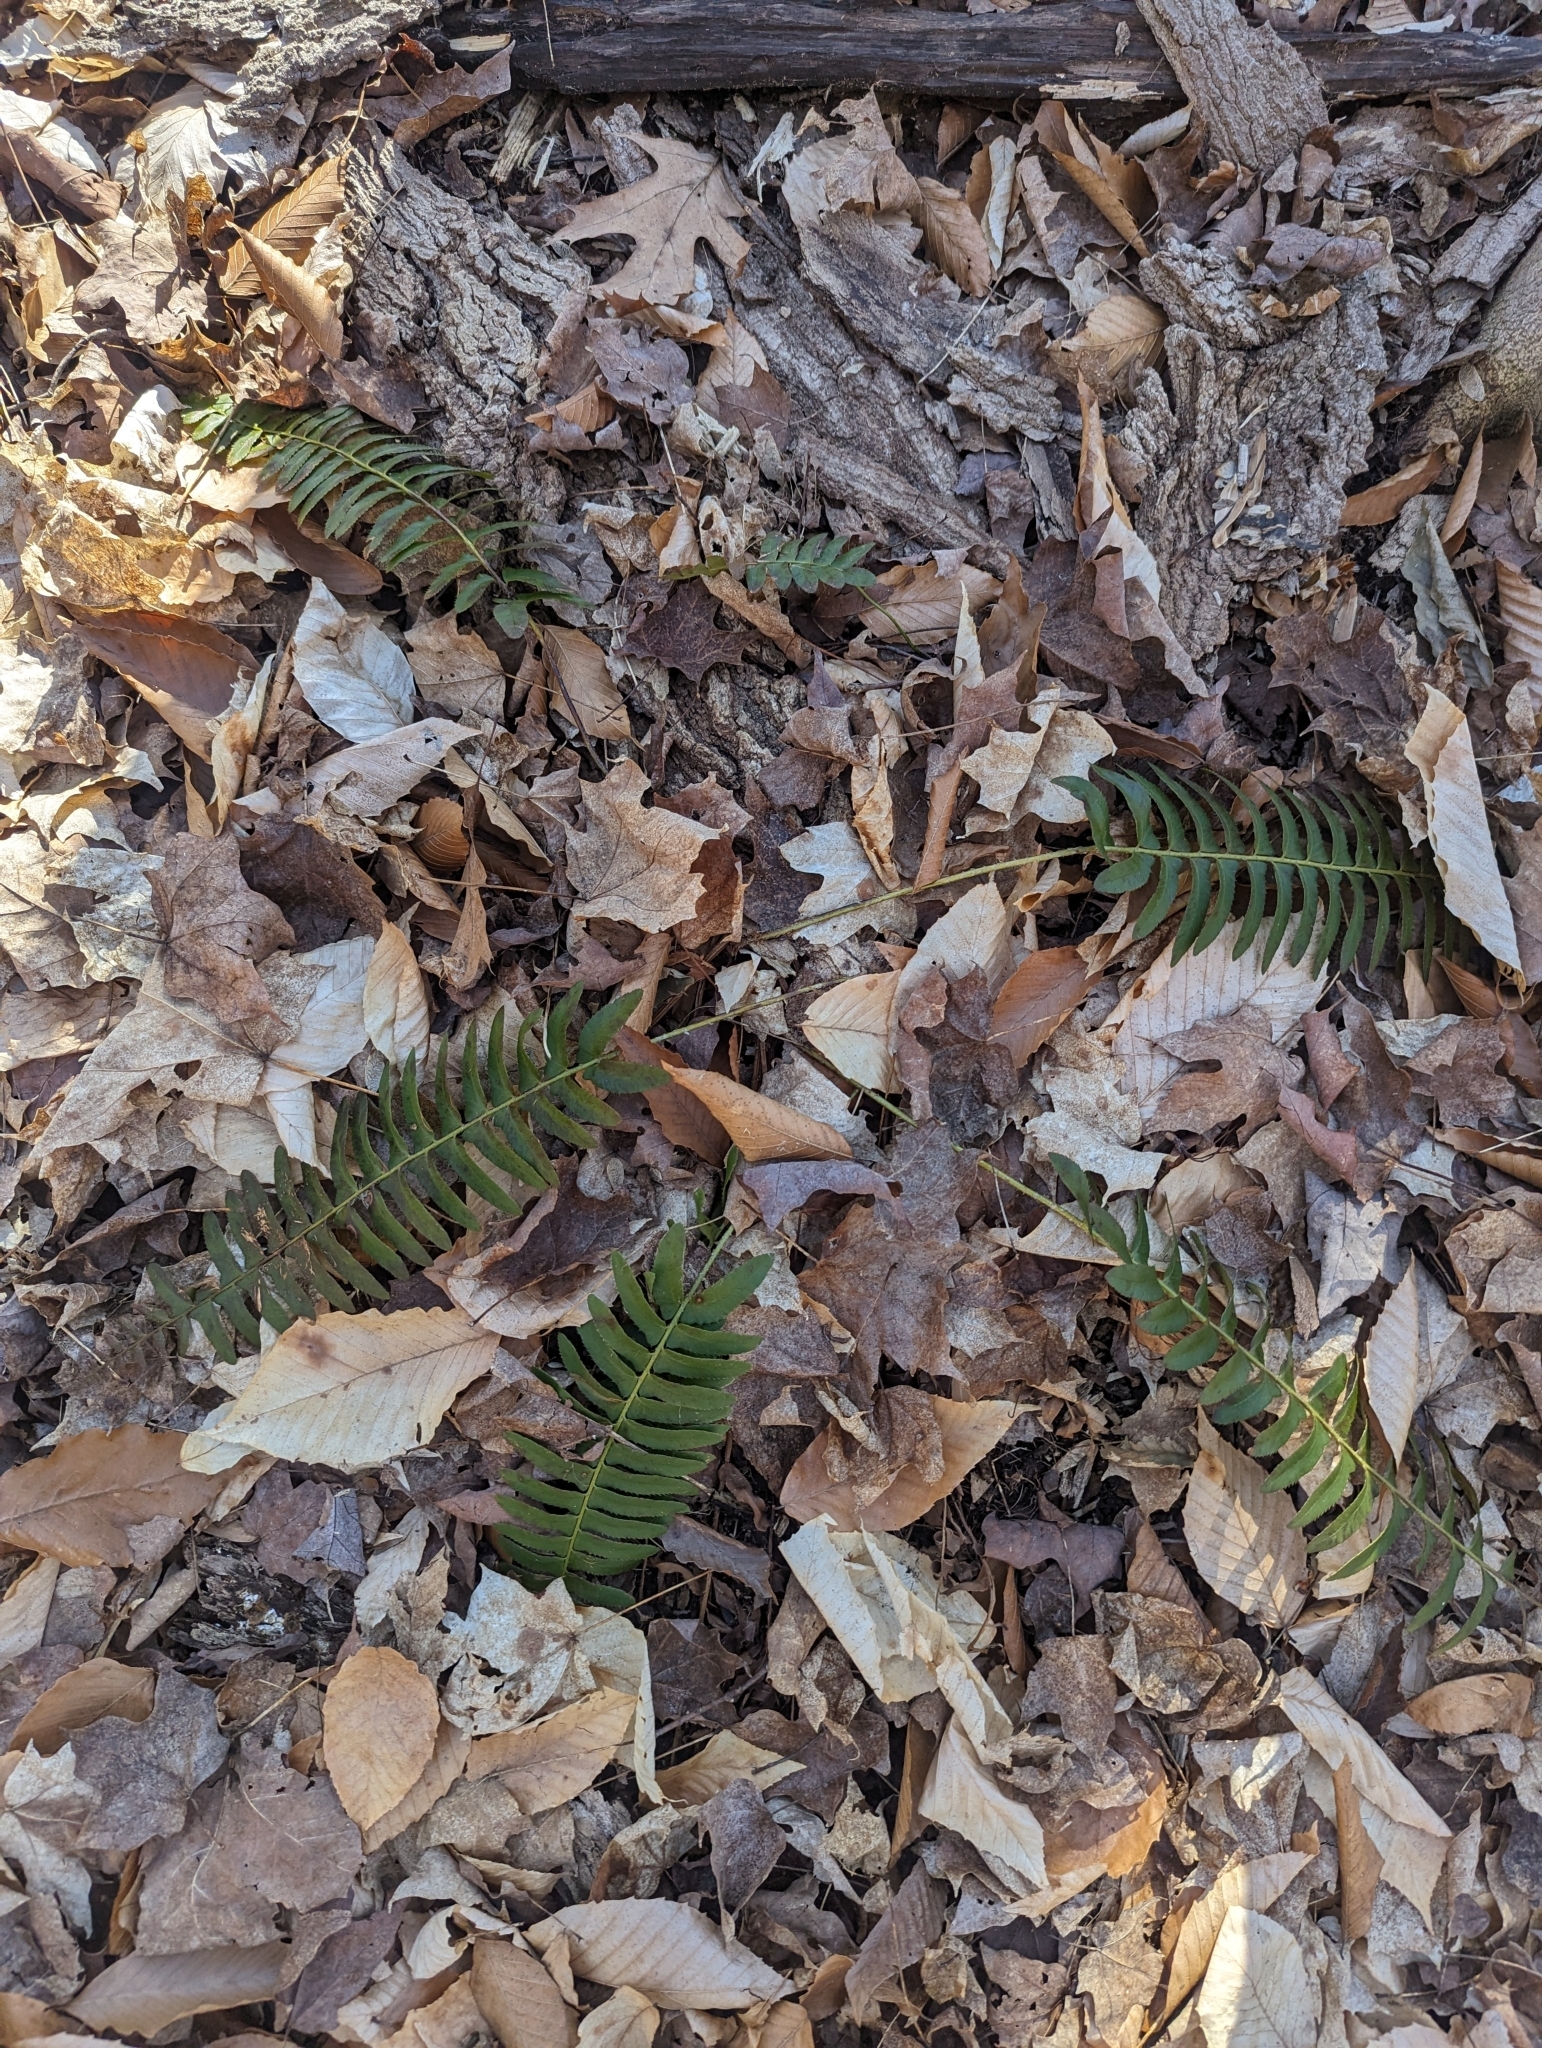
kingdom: Plantae
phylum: Tracheophyta
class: Polypodiopsida
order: Polypodiales
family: Dryopteridaceae
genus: Polystichum
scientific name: Polystichum acrostichoides
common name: Christmas fern
